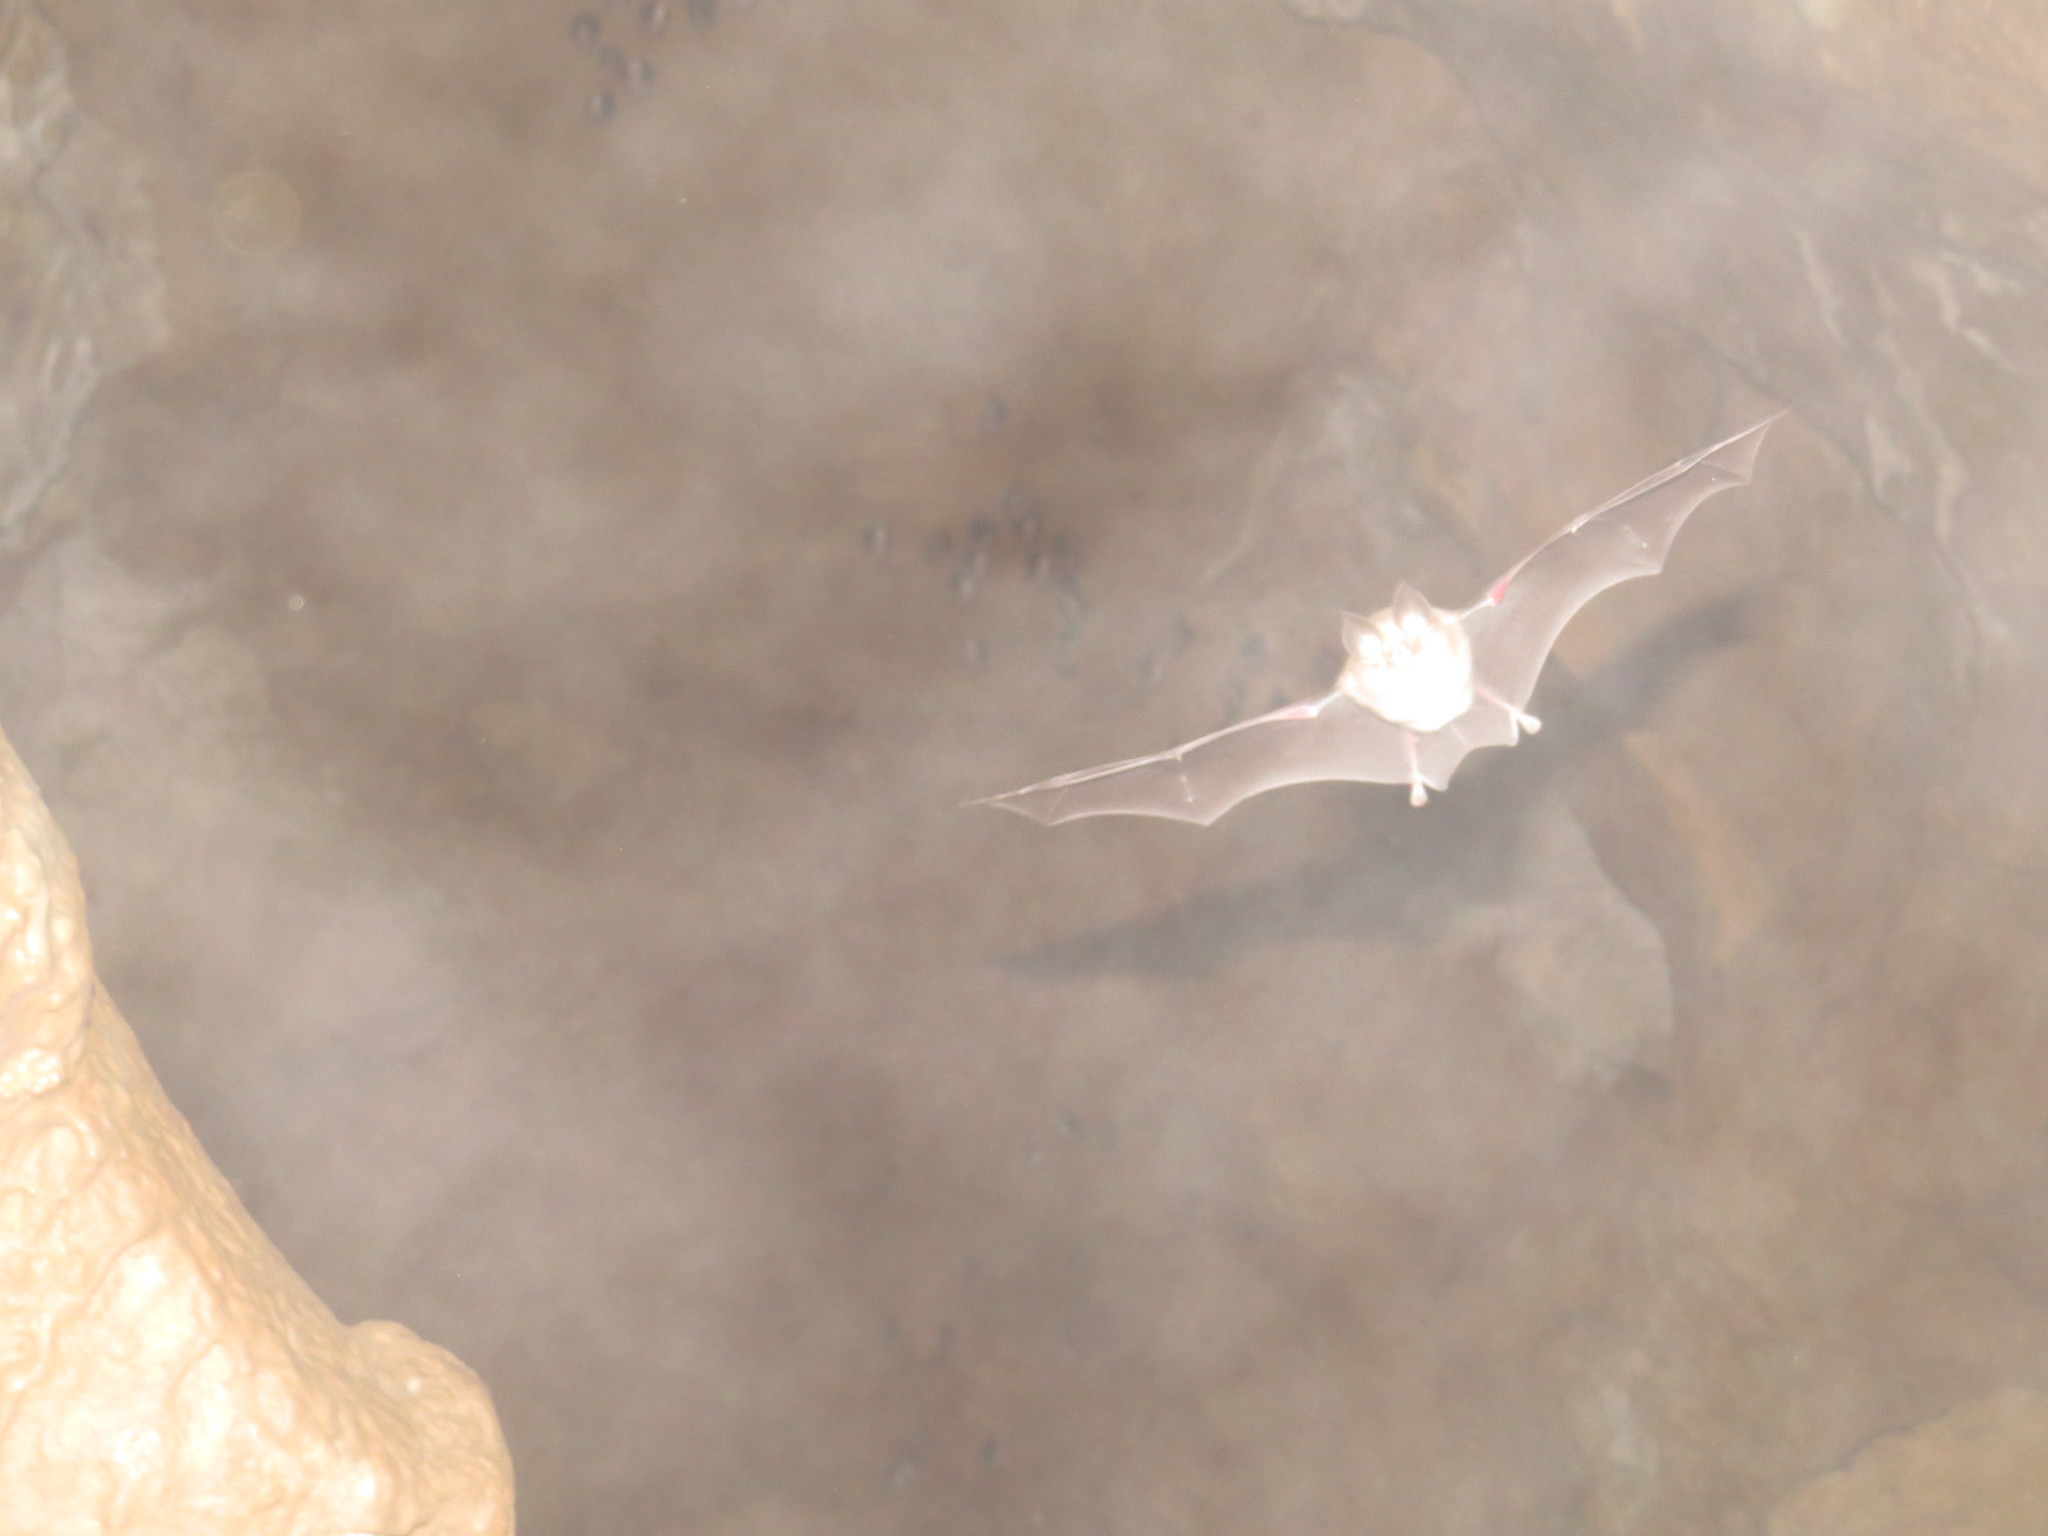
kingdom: Animalia
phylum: Chordata
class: Mammalia
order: Chiroptera
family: Rhinolophidae
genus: Rhinolophus
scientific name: Rhinolophus euryale
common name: Mediterranean horseshoe bat
